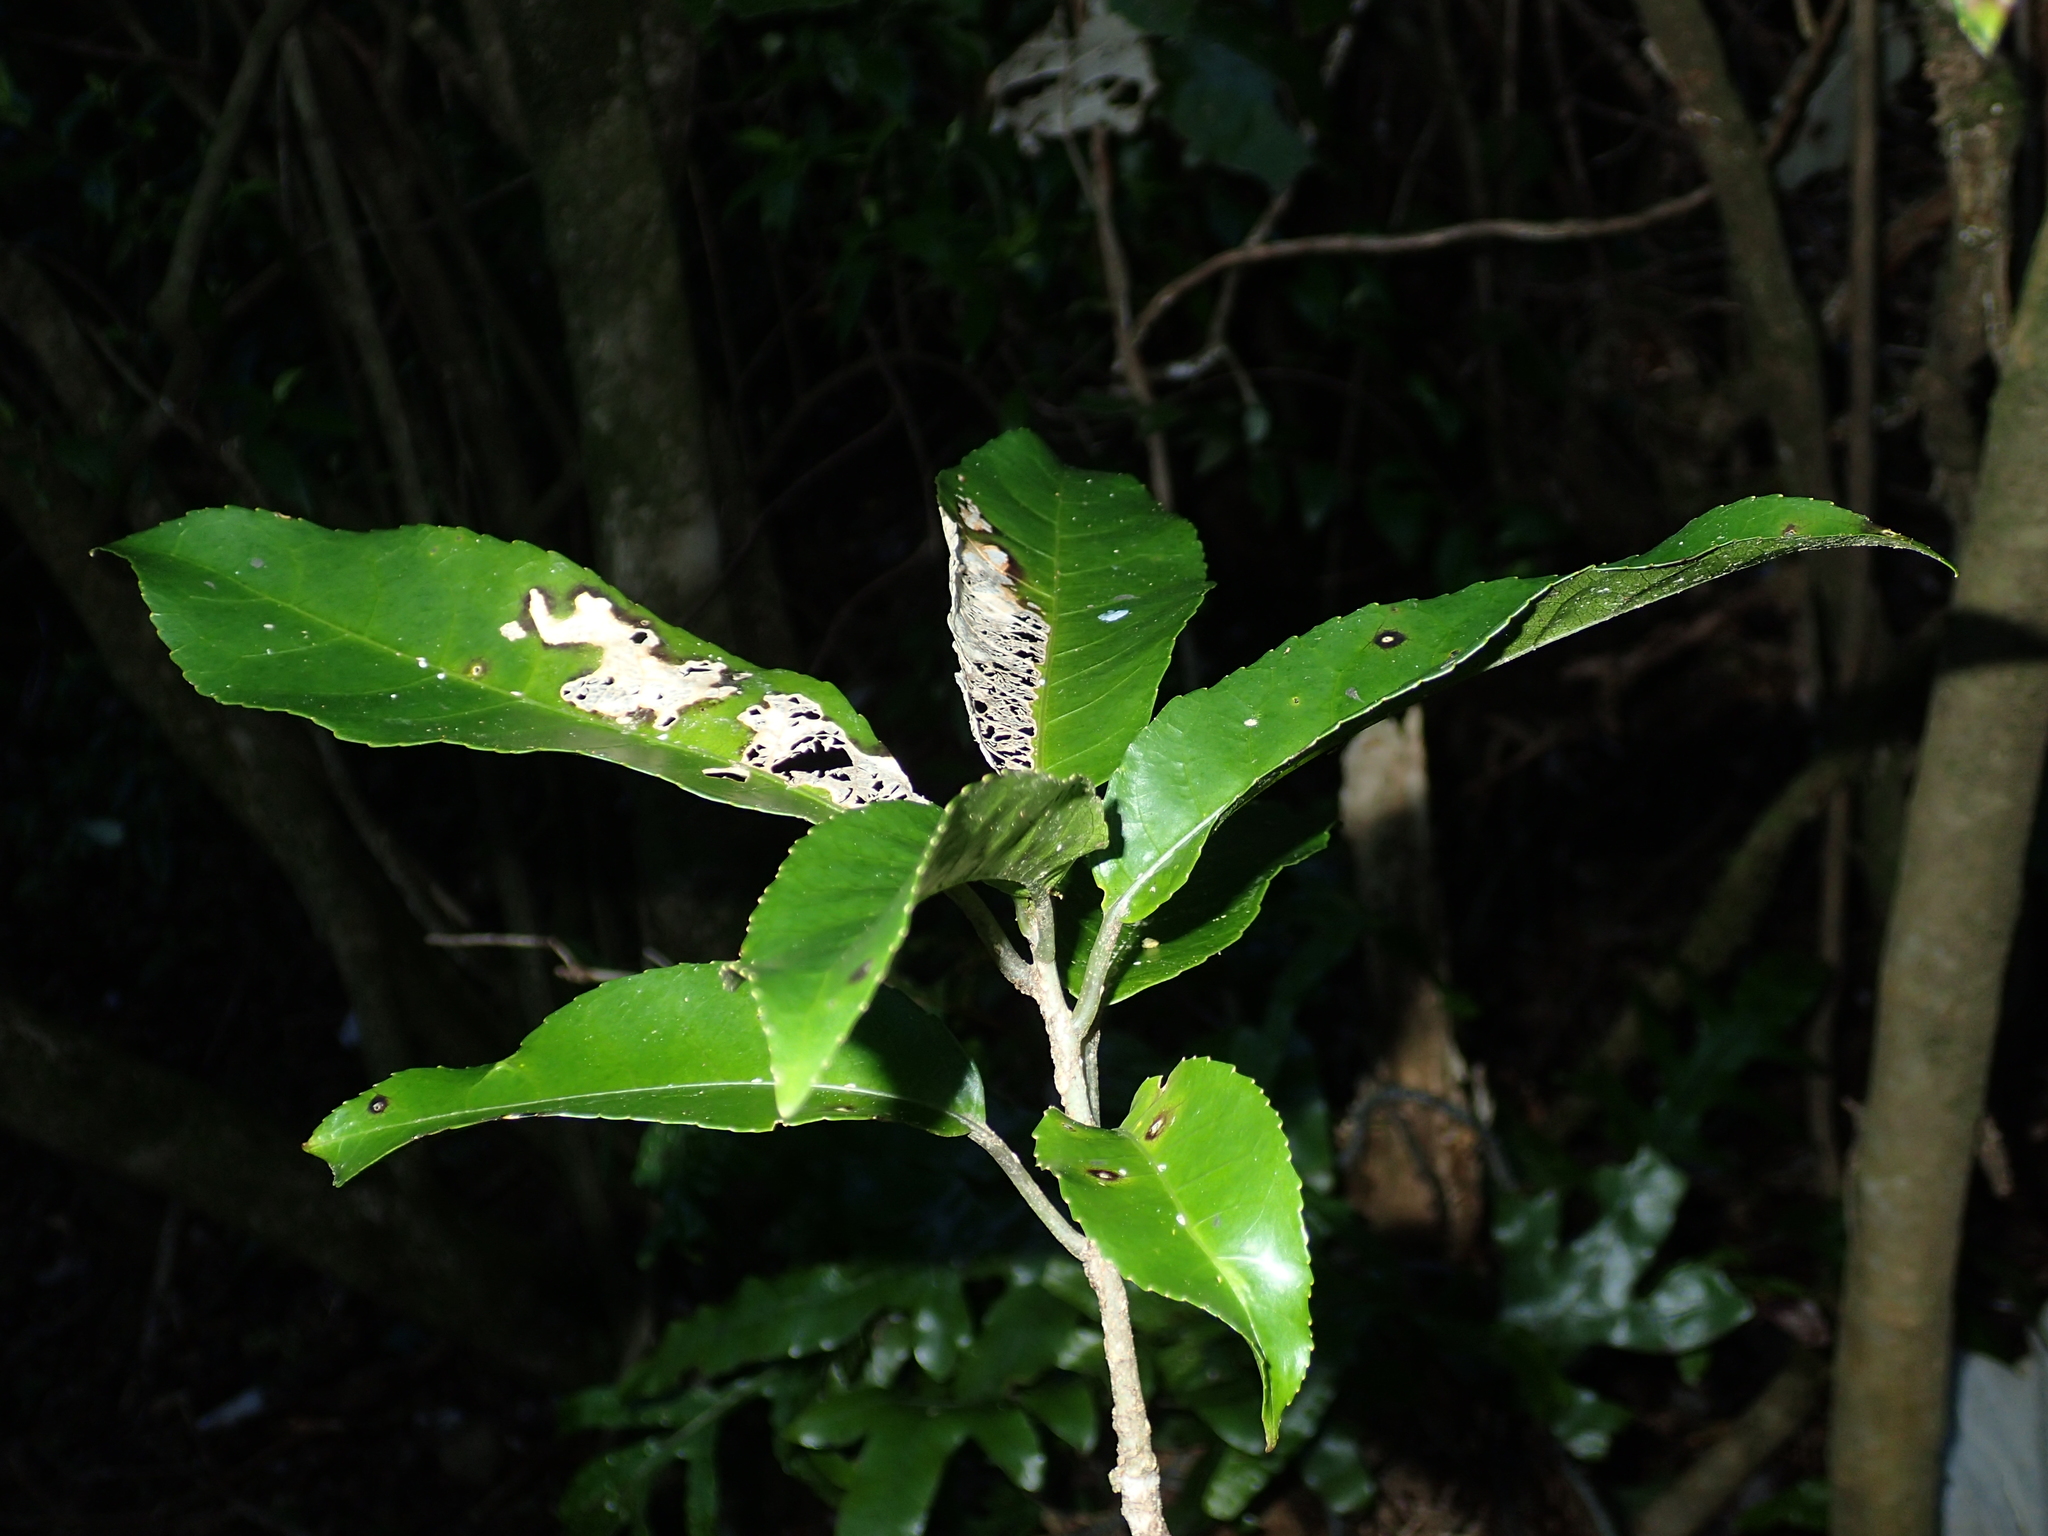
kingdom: Plantae
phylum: Tracheophyta
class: Magnoliopsida
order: Malpighiales
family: Violaceae
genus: Melicytus
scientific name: Melicytus ramiflorus
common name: Mahoe
